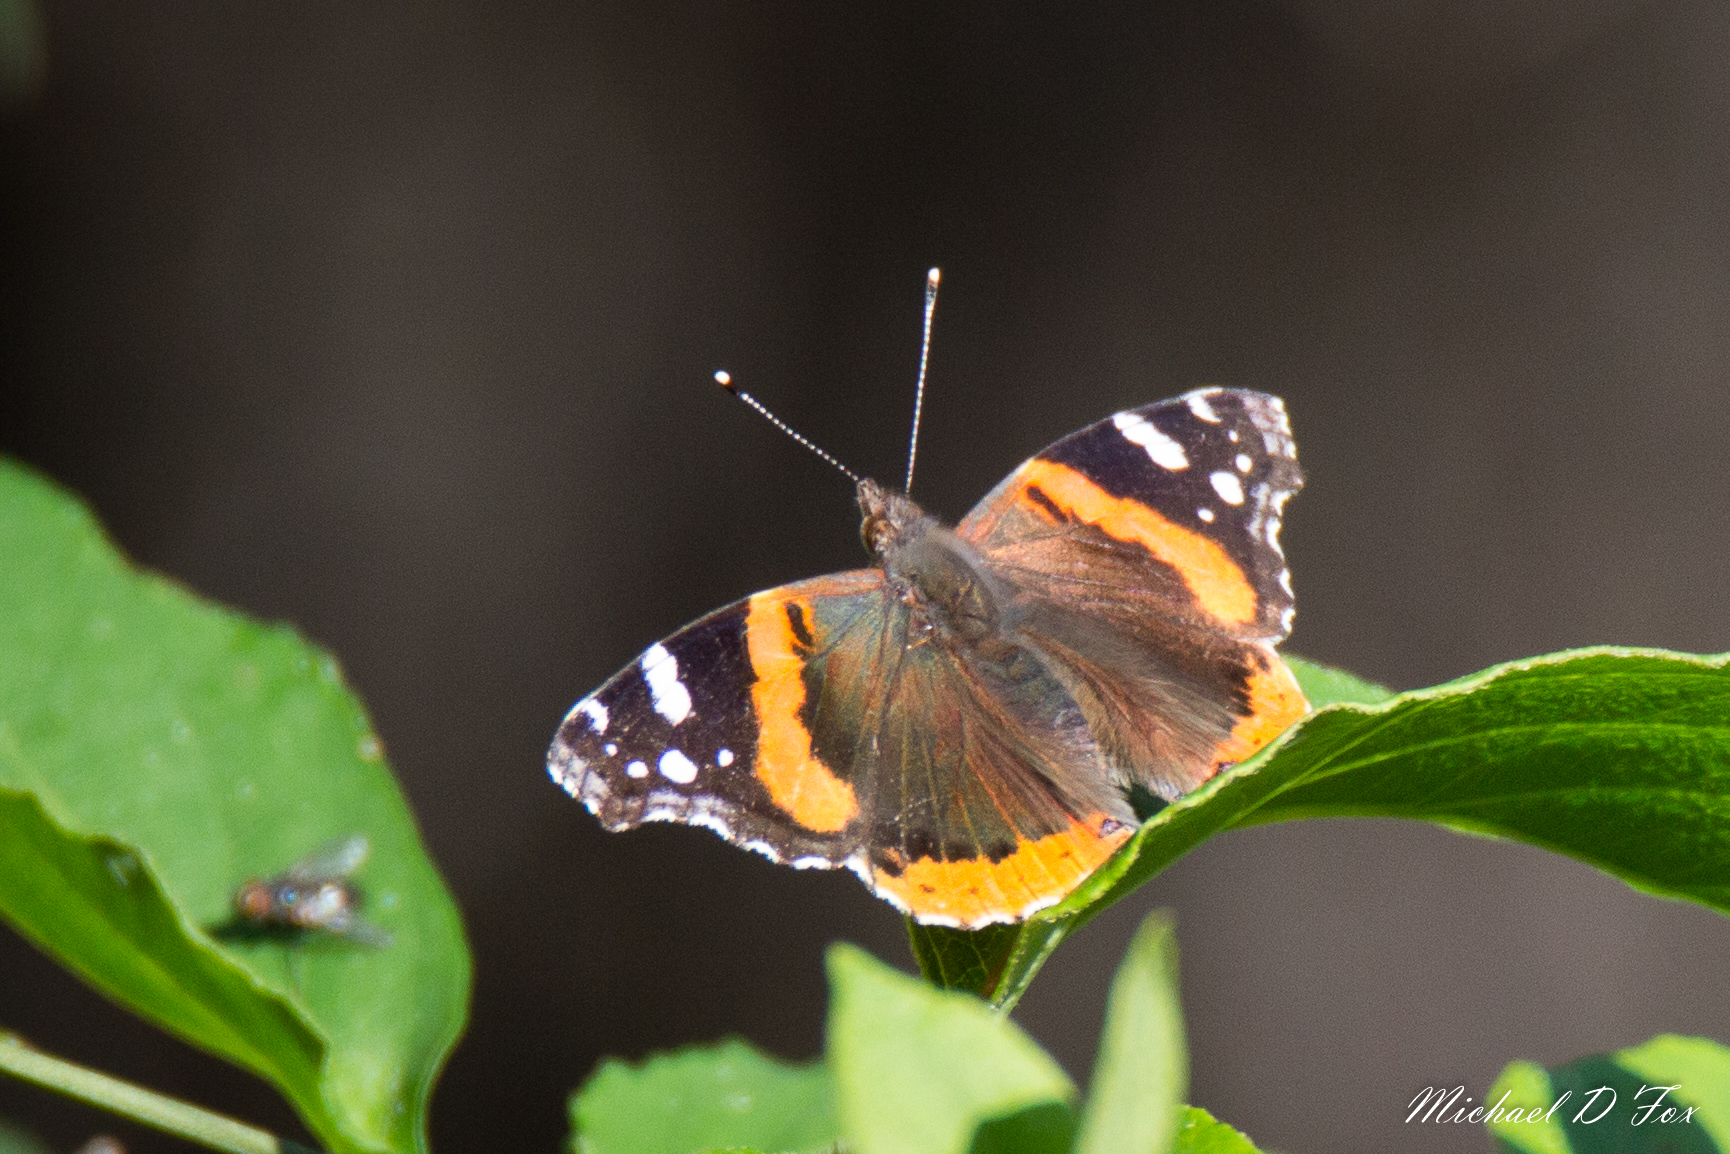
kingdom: Animalia
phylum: Arthropoda
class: Insecta
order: Lepidoptera
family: Nymphalidae
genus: Vanessa
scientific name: Vanessa atalanta
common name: Red admiral
